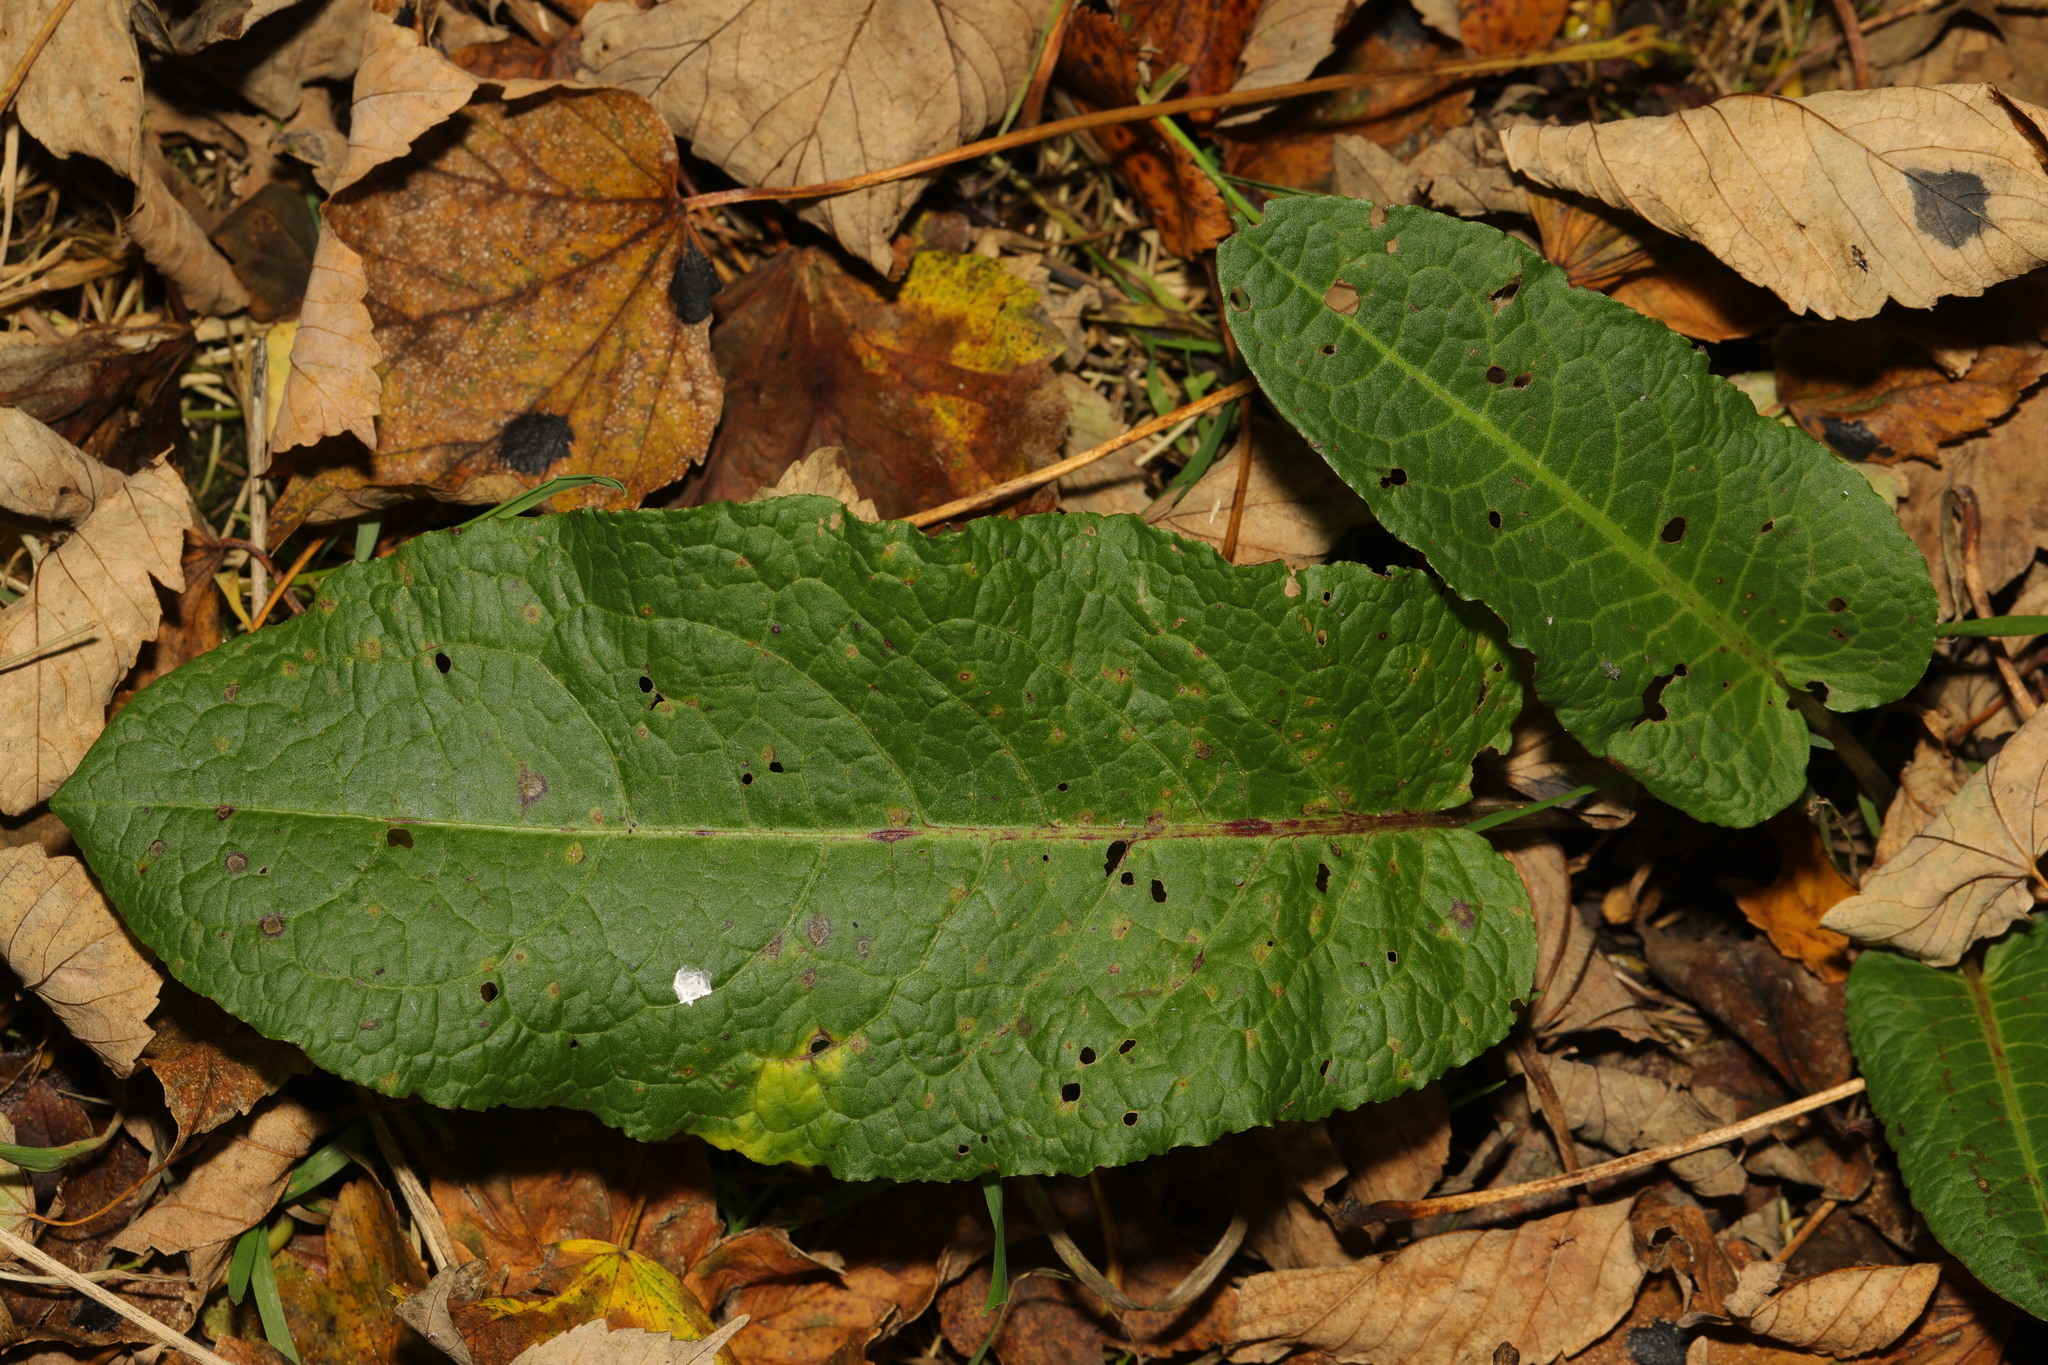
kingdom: Plantae
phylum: Tracheophyta
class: Magnoliopsida
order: Caryophyllales
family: Polygonaceae
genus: Rumex
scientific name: Rumex obtusifolius
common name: Bitter dock
